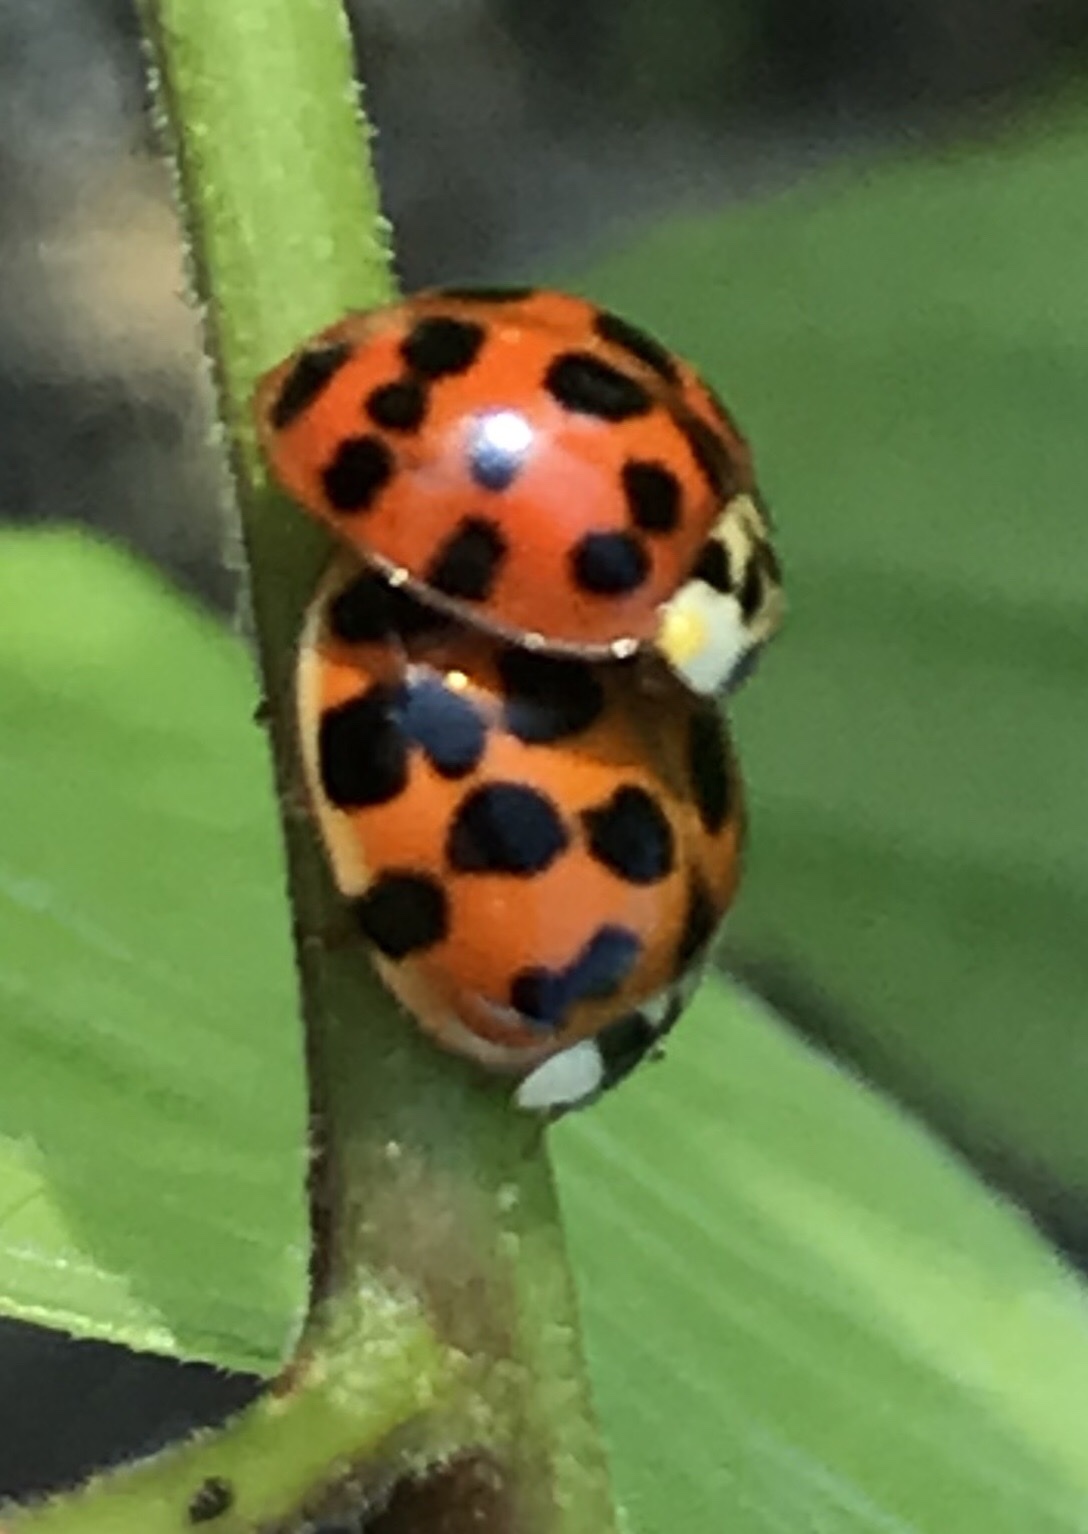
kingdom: Animalia
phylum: Arthropoda
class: Insecta
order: Coleoptera
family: Coccinellidae
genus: Harmonia
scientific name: Harmonia axyridis
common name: Harlequin ladybird
